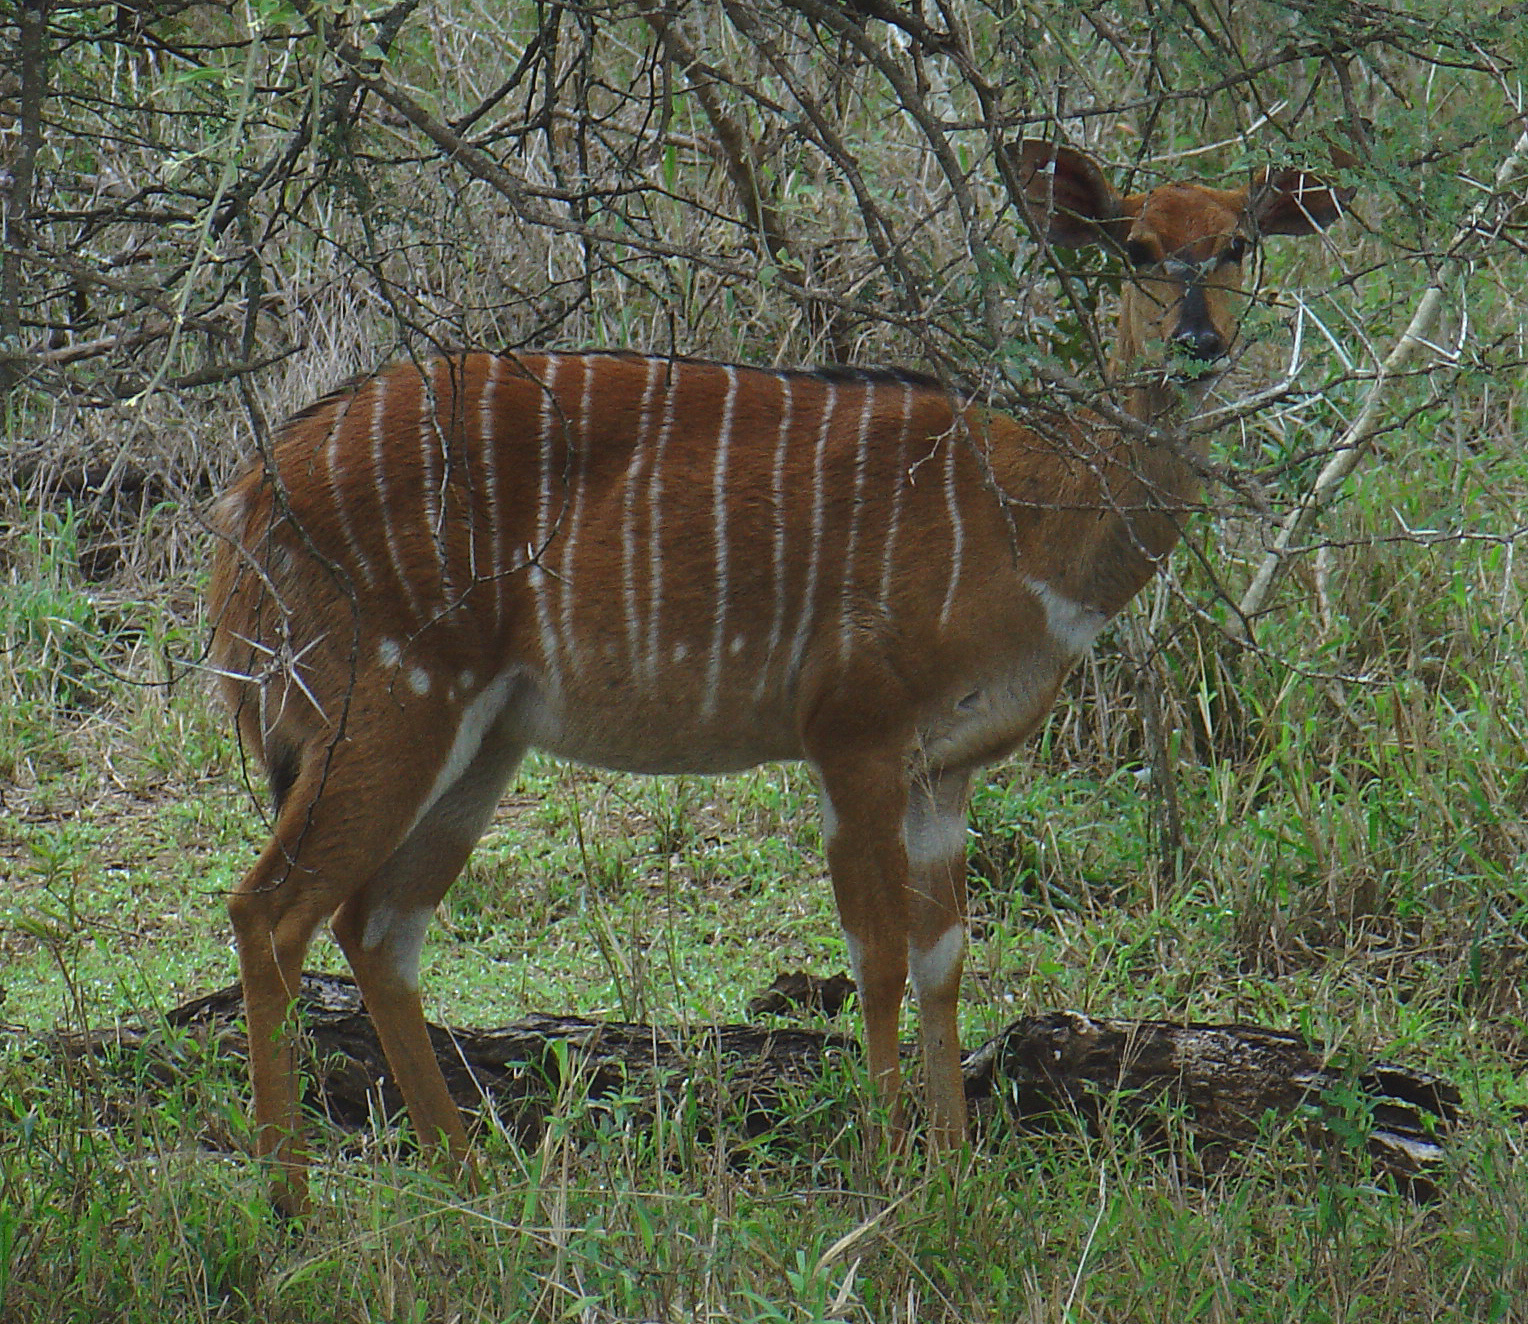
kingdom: Animalia
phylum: Chordata
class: Mammalia
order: Artiodactyla
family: Bovidae
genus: Tragelaphus
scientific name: Tragelaphus angasii
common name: Nyala
